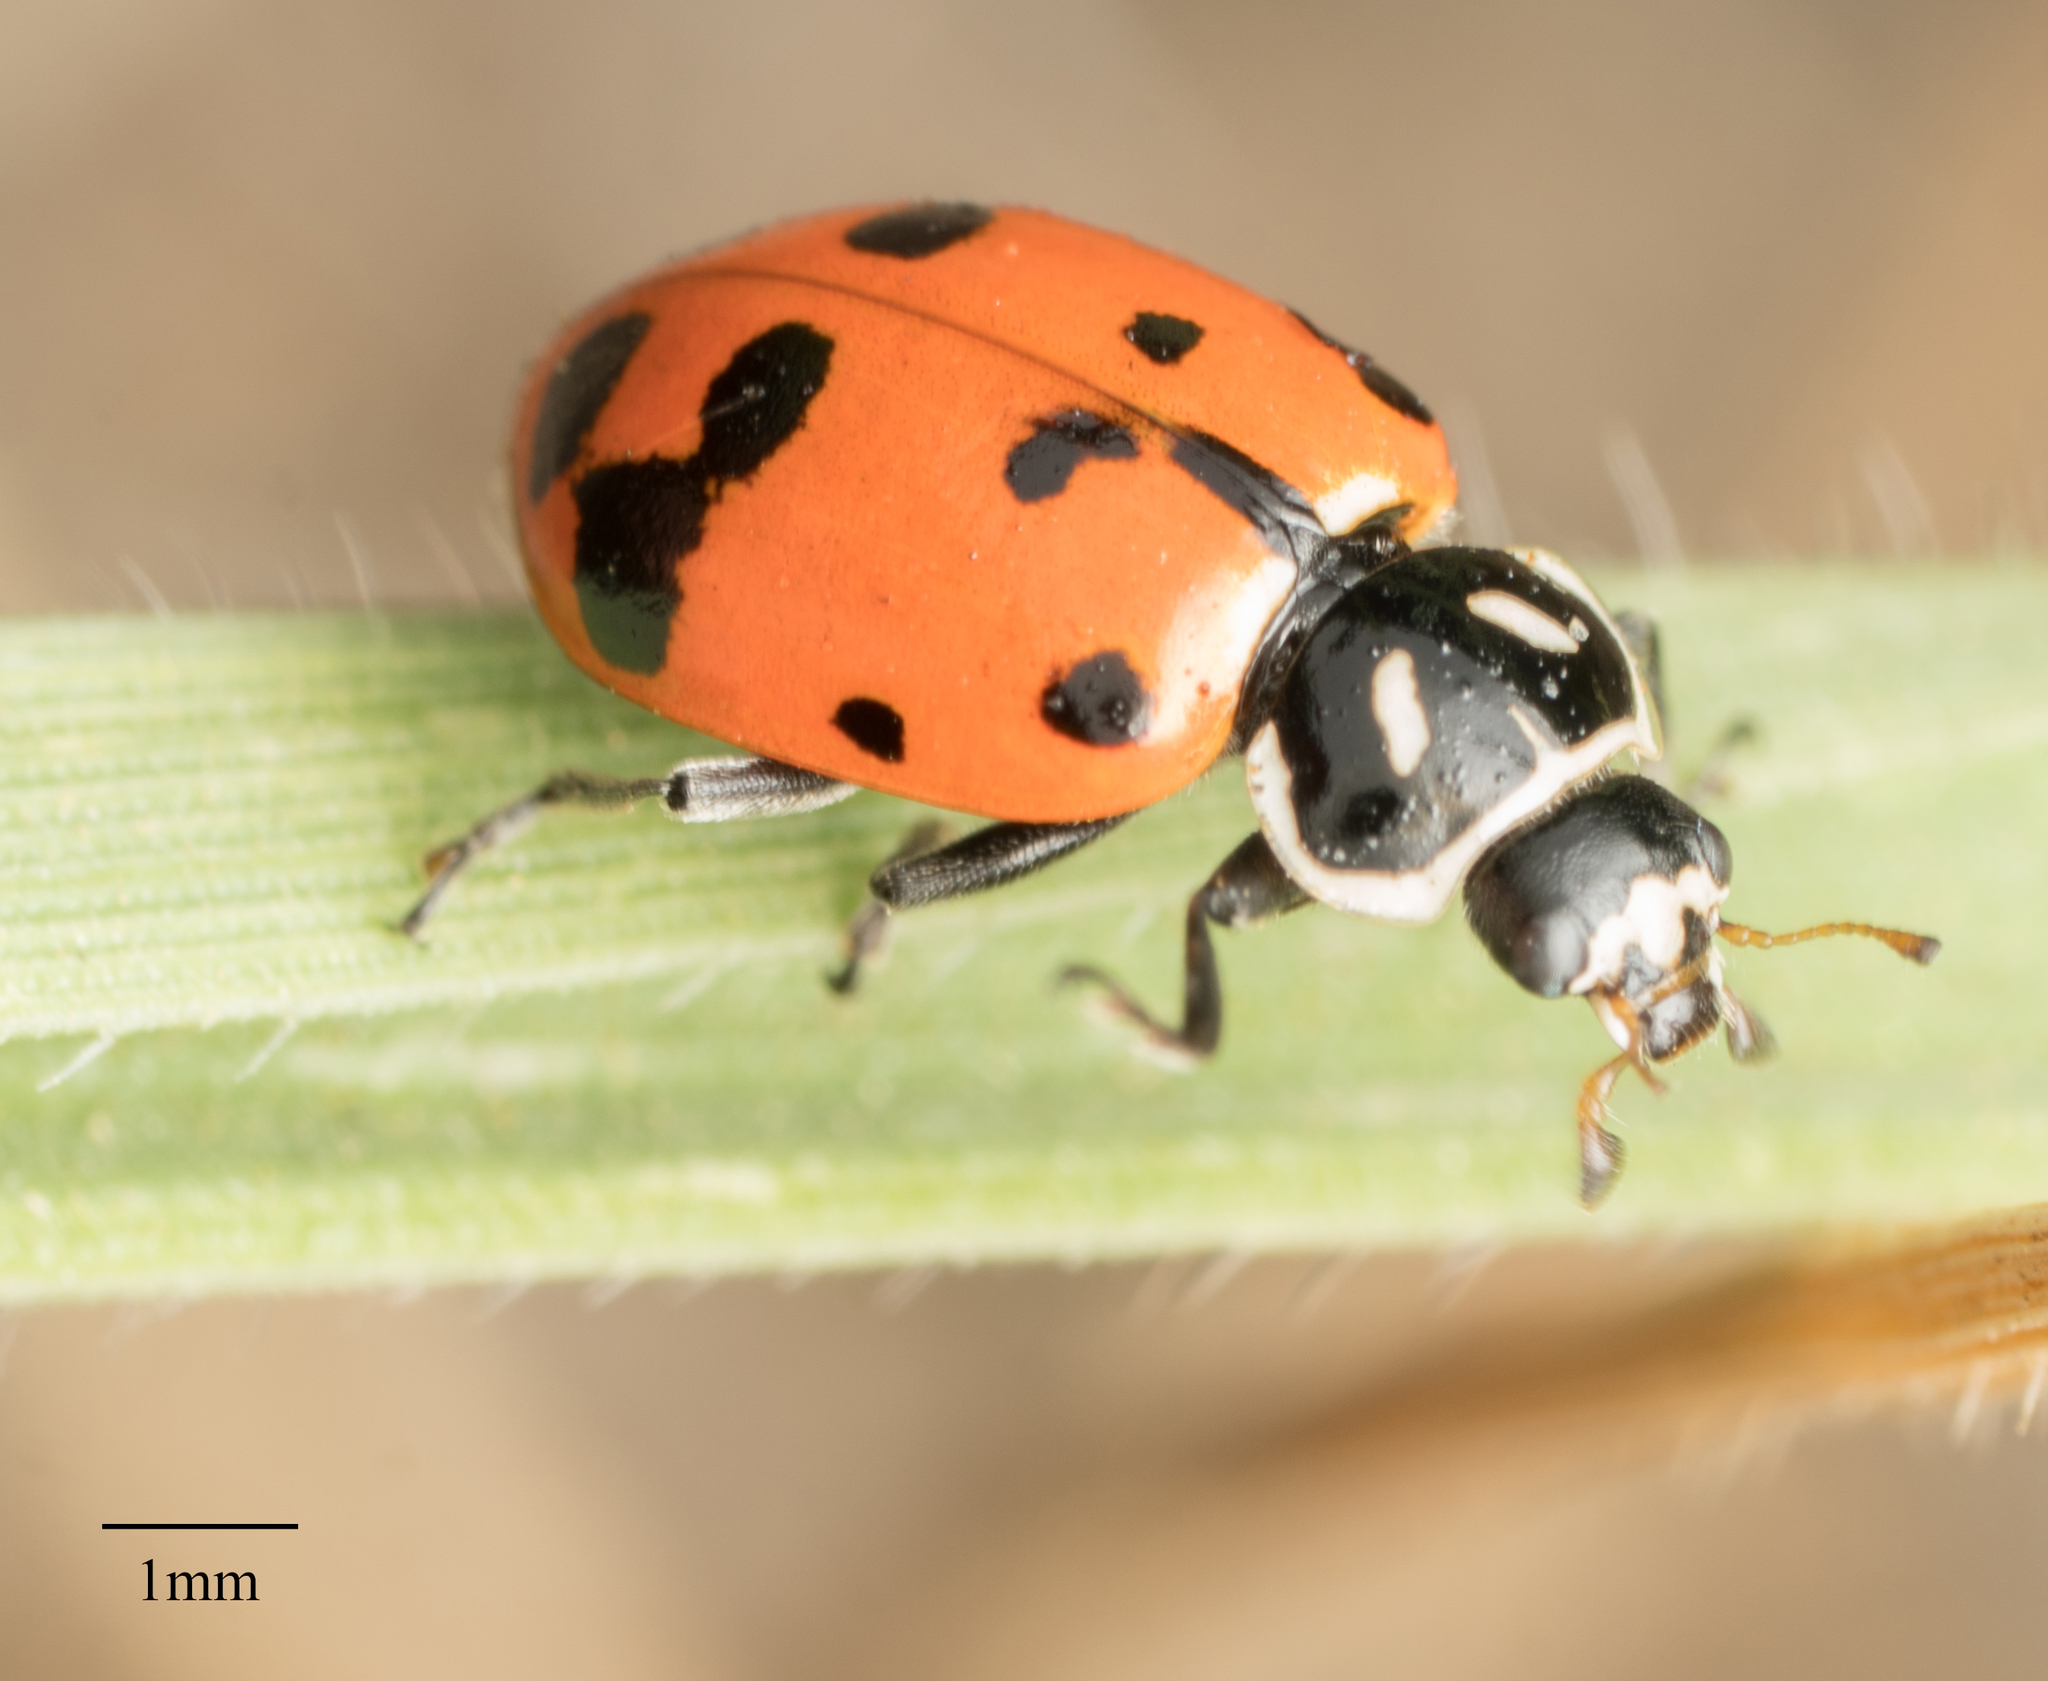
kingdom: Animalia
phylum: Arthropoda
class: Insecta
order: Coleoptera
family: Coccinellidae
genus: Hippodamia
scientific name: Hippodamia convergens
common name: Convergent lady beetle
